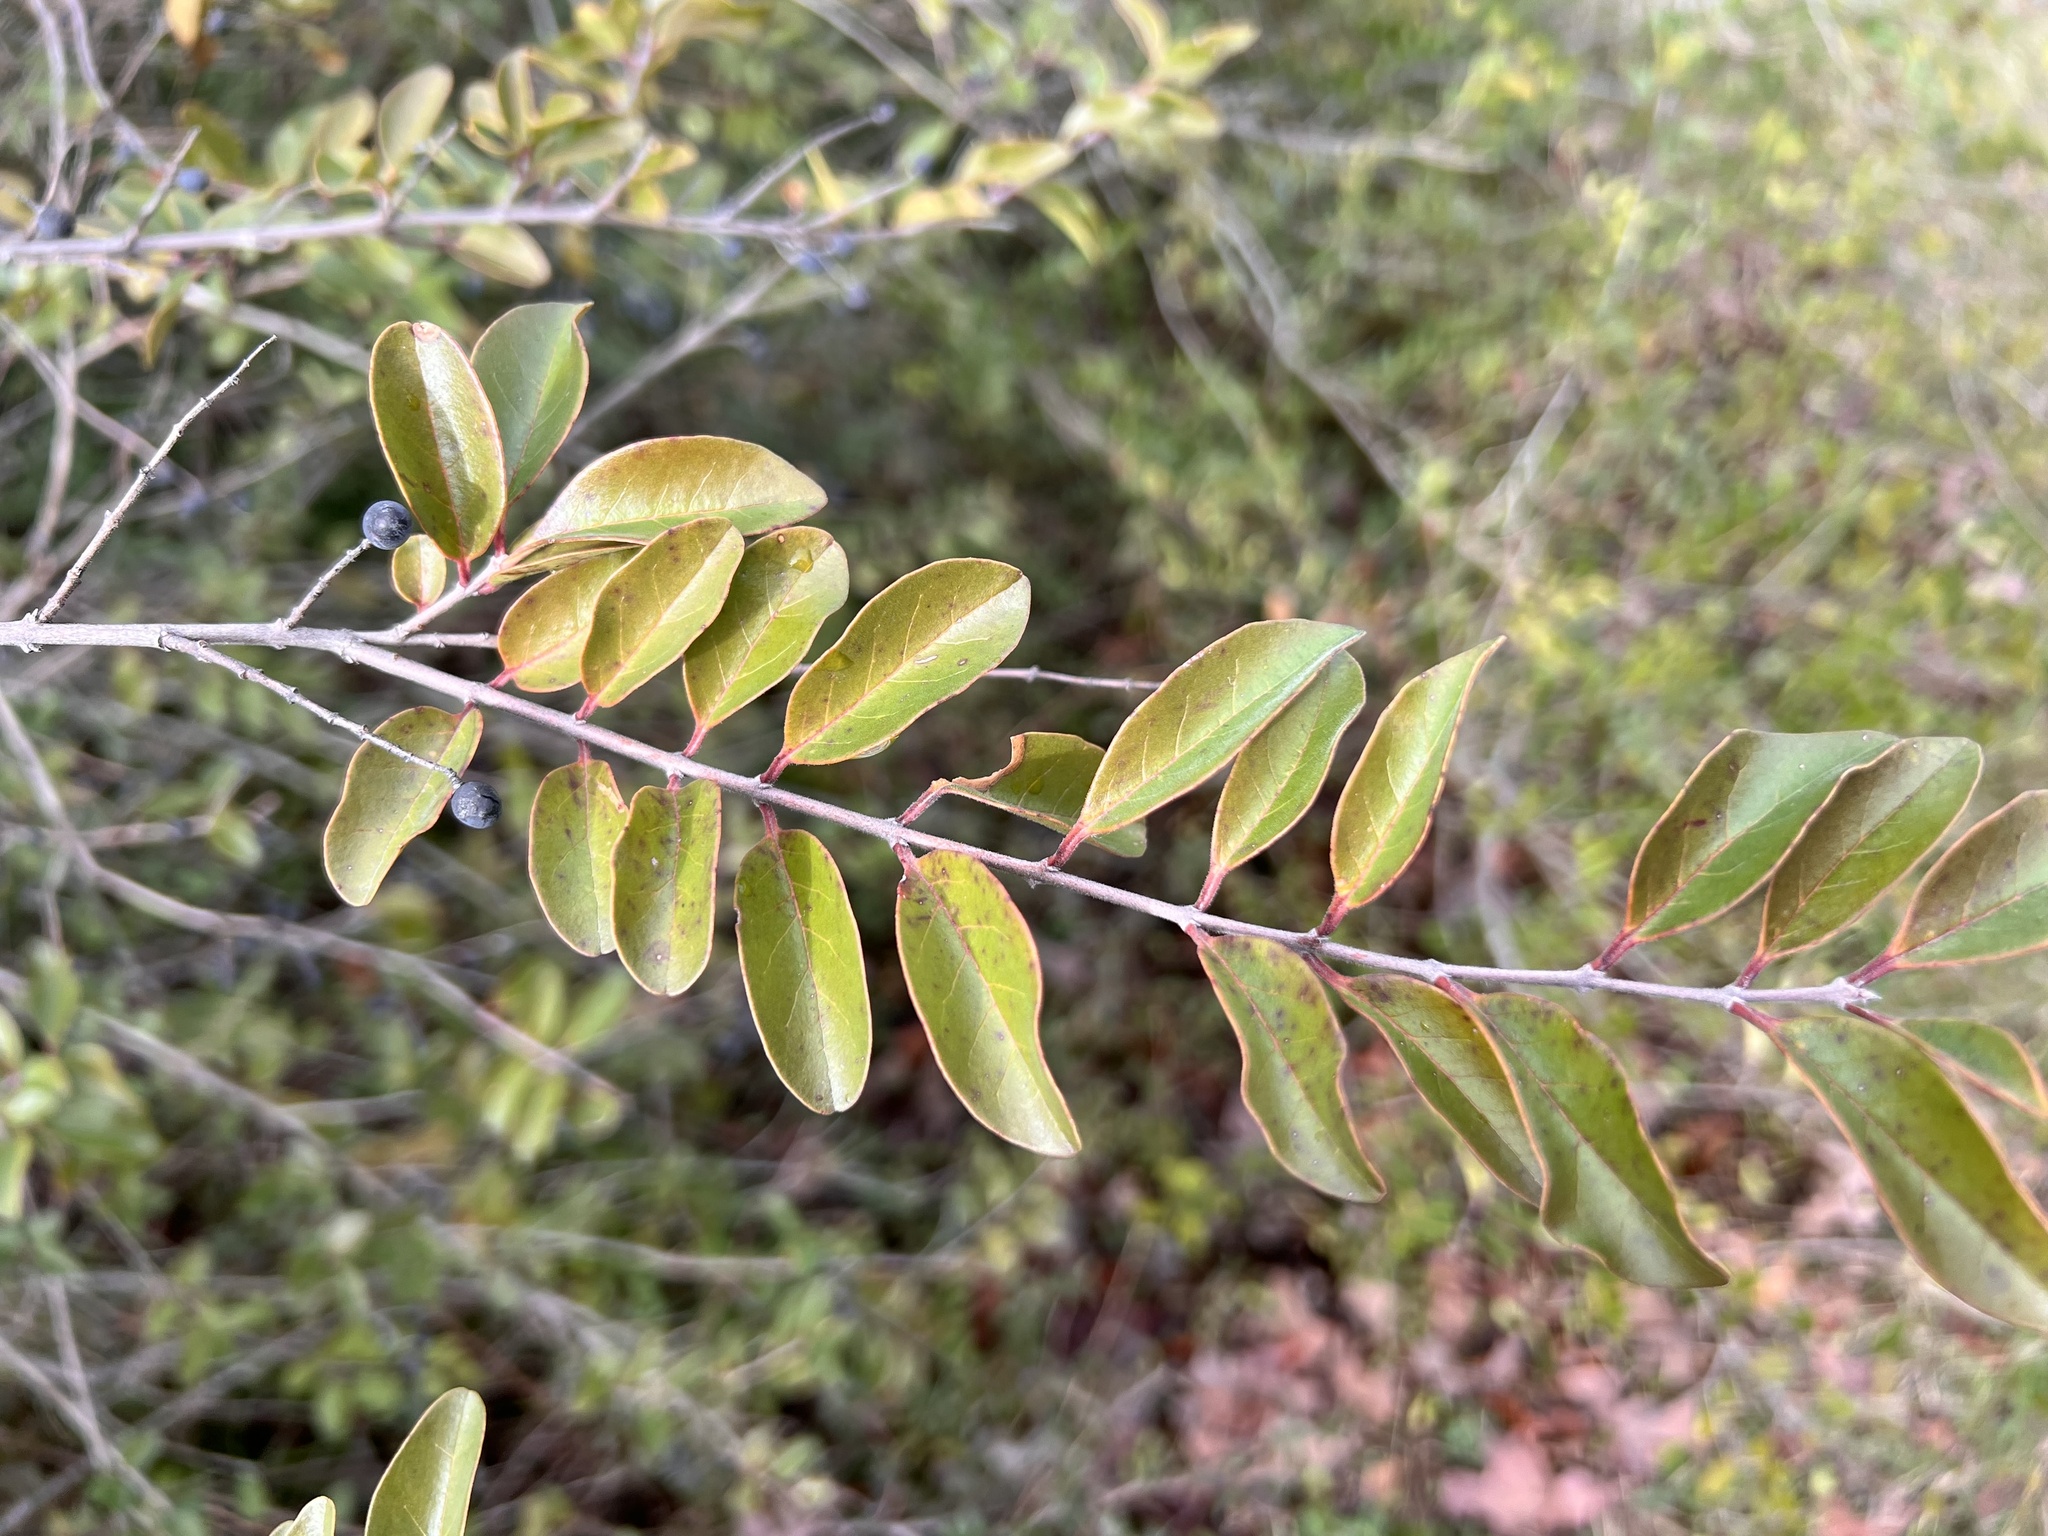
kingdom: Plantae
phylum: Tracheophyta
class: Magnoliopsida
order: Lamiales
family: Oleaceae
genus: Ligustrum
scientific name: Ligustrum sinense
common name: Chinese privet
